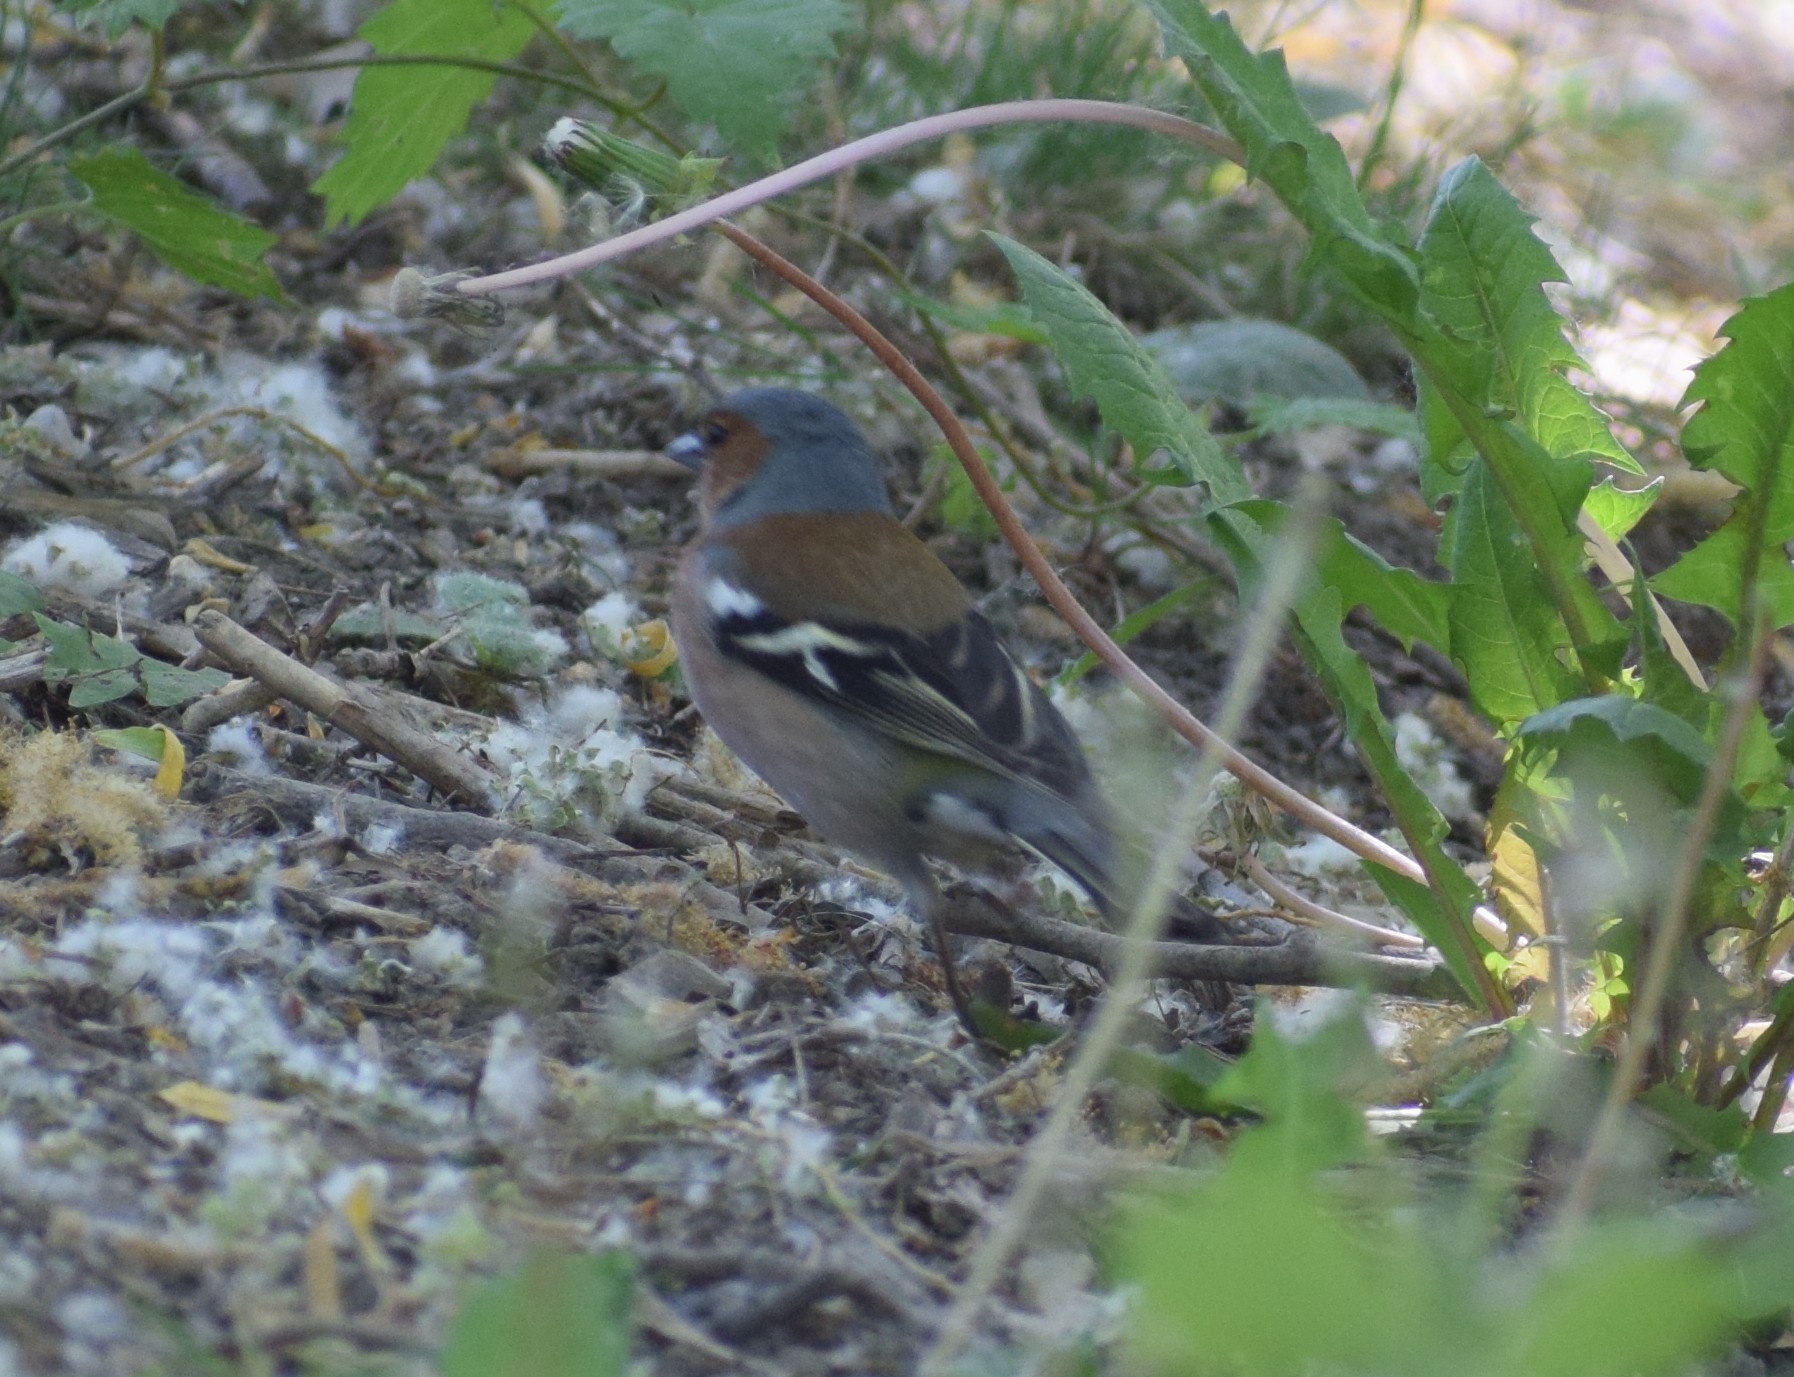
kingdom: Animalia
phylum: Chordata
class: Aves
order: Passeriformes
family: Fringillidae
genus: Fringilla
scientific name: Fringilla coelebs
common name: Common chaffinch
